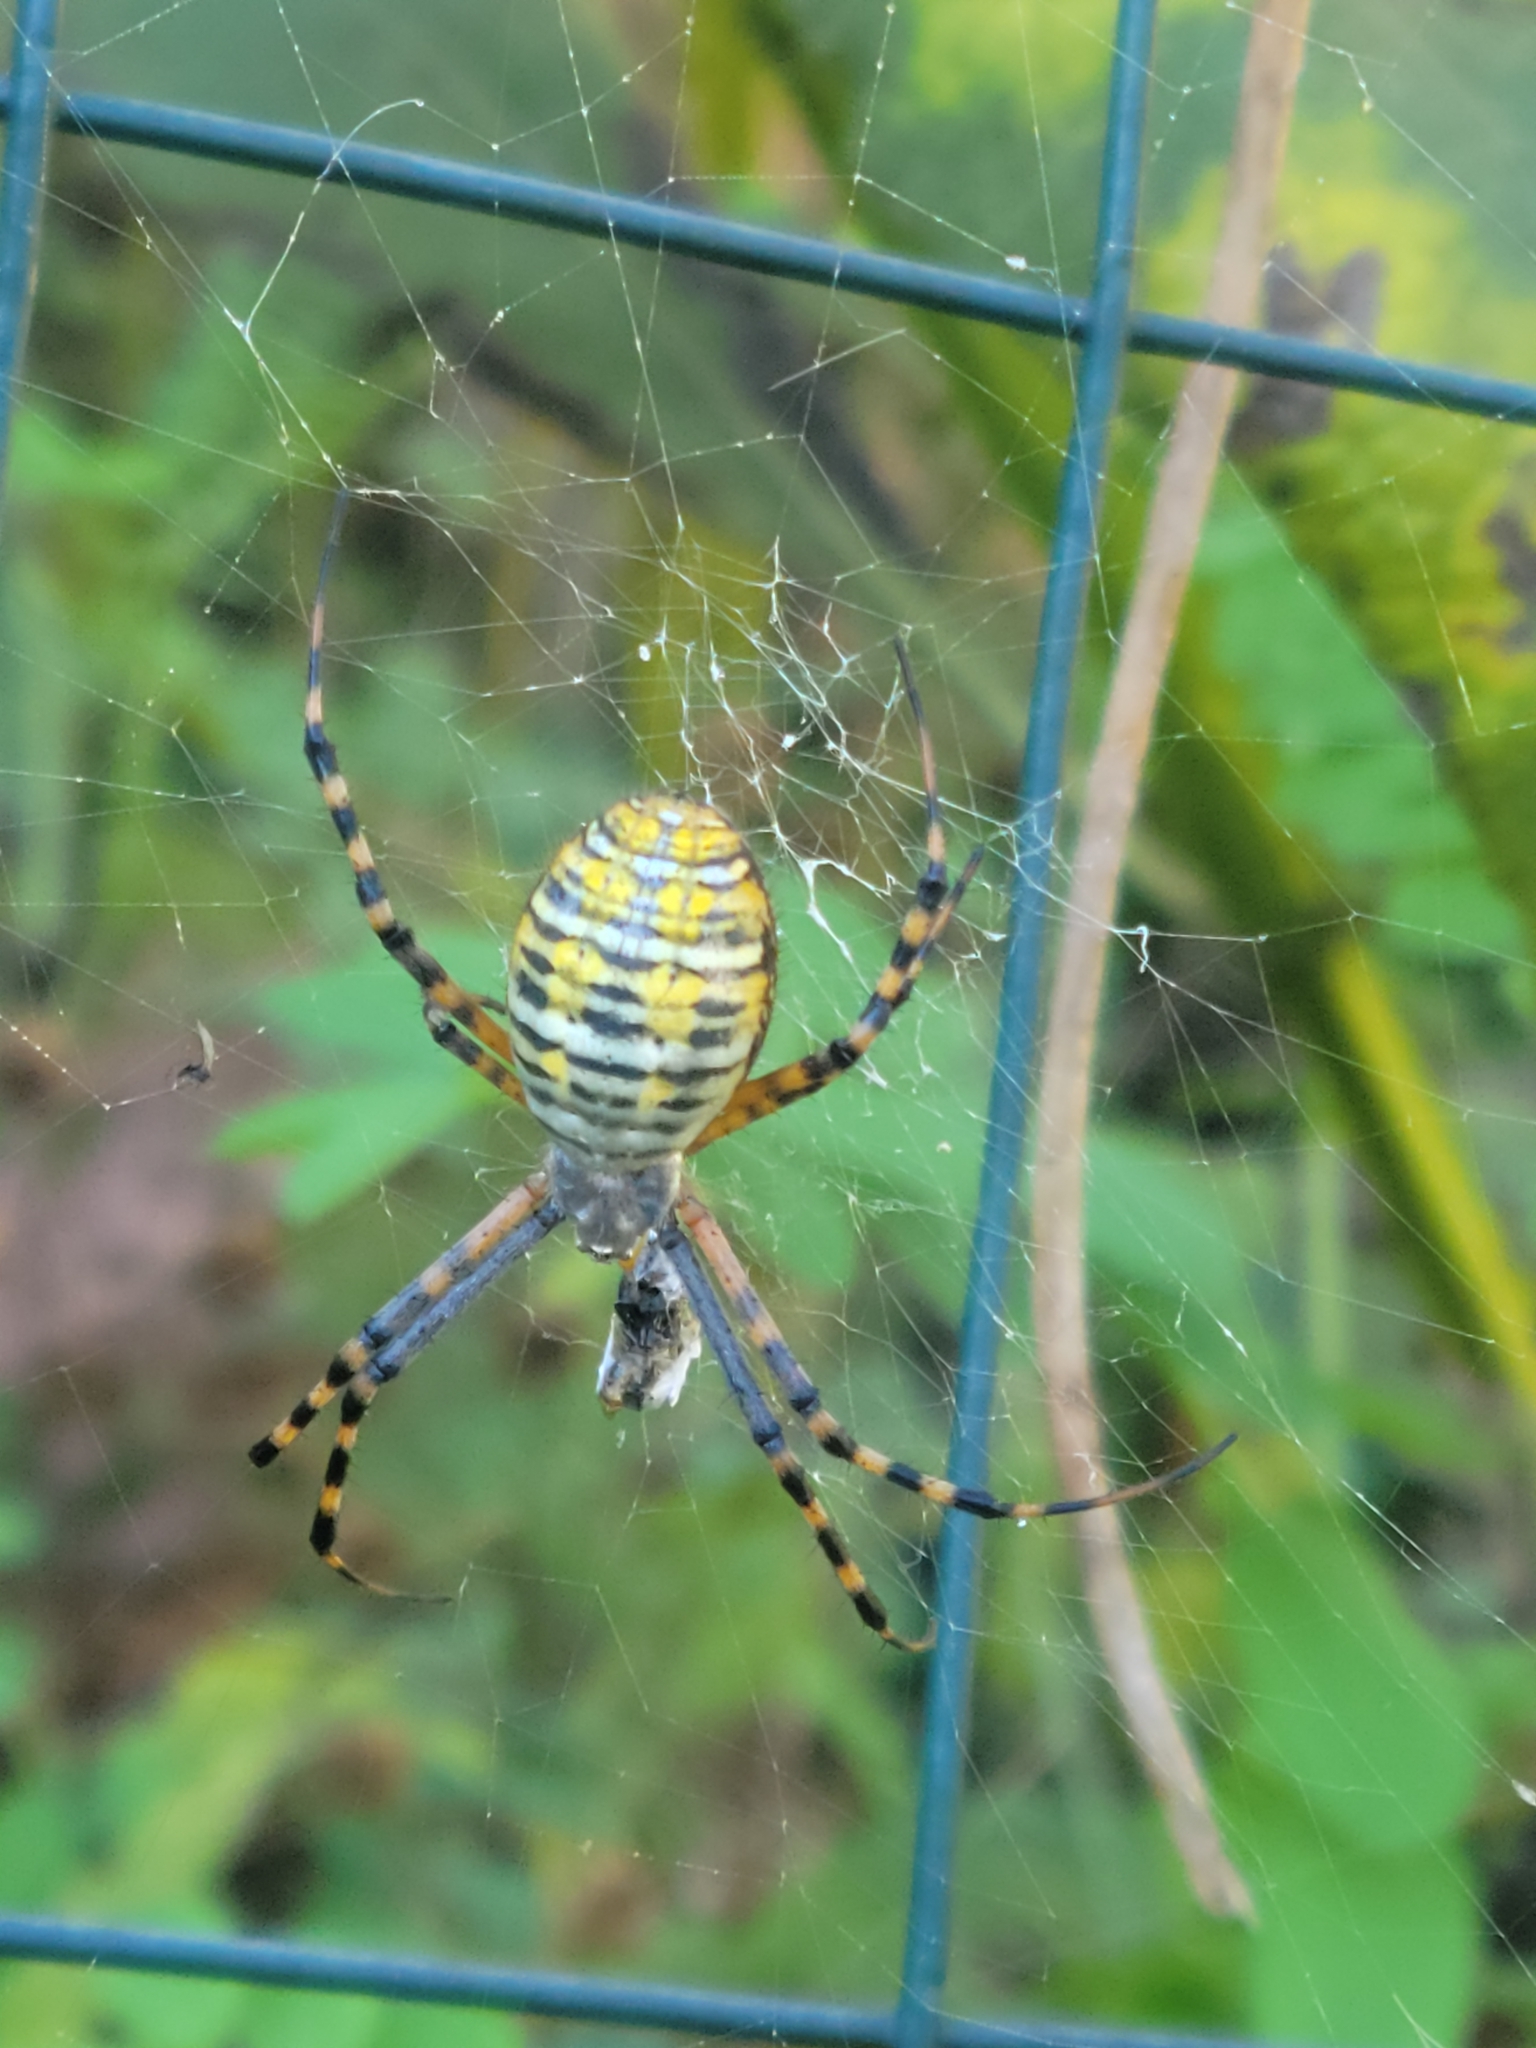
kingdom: Animalia
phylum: Arthropoda
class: Arachnida
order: Araneae
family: Araneidae
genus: Argiope
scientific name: Argiope trifasciata
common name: Banded garden spider
